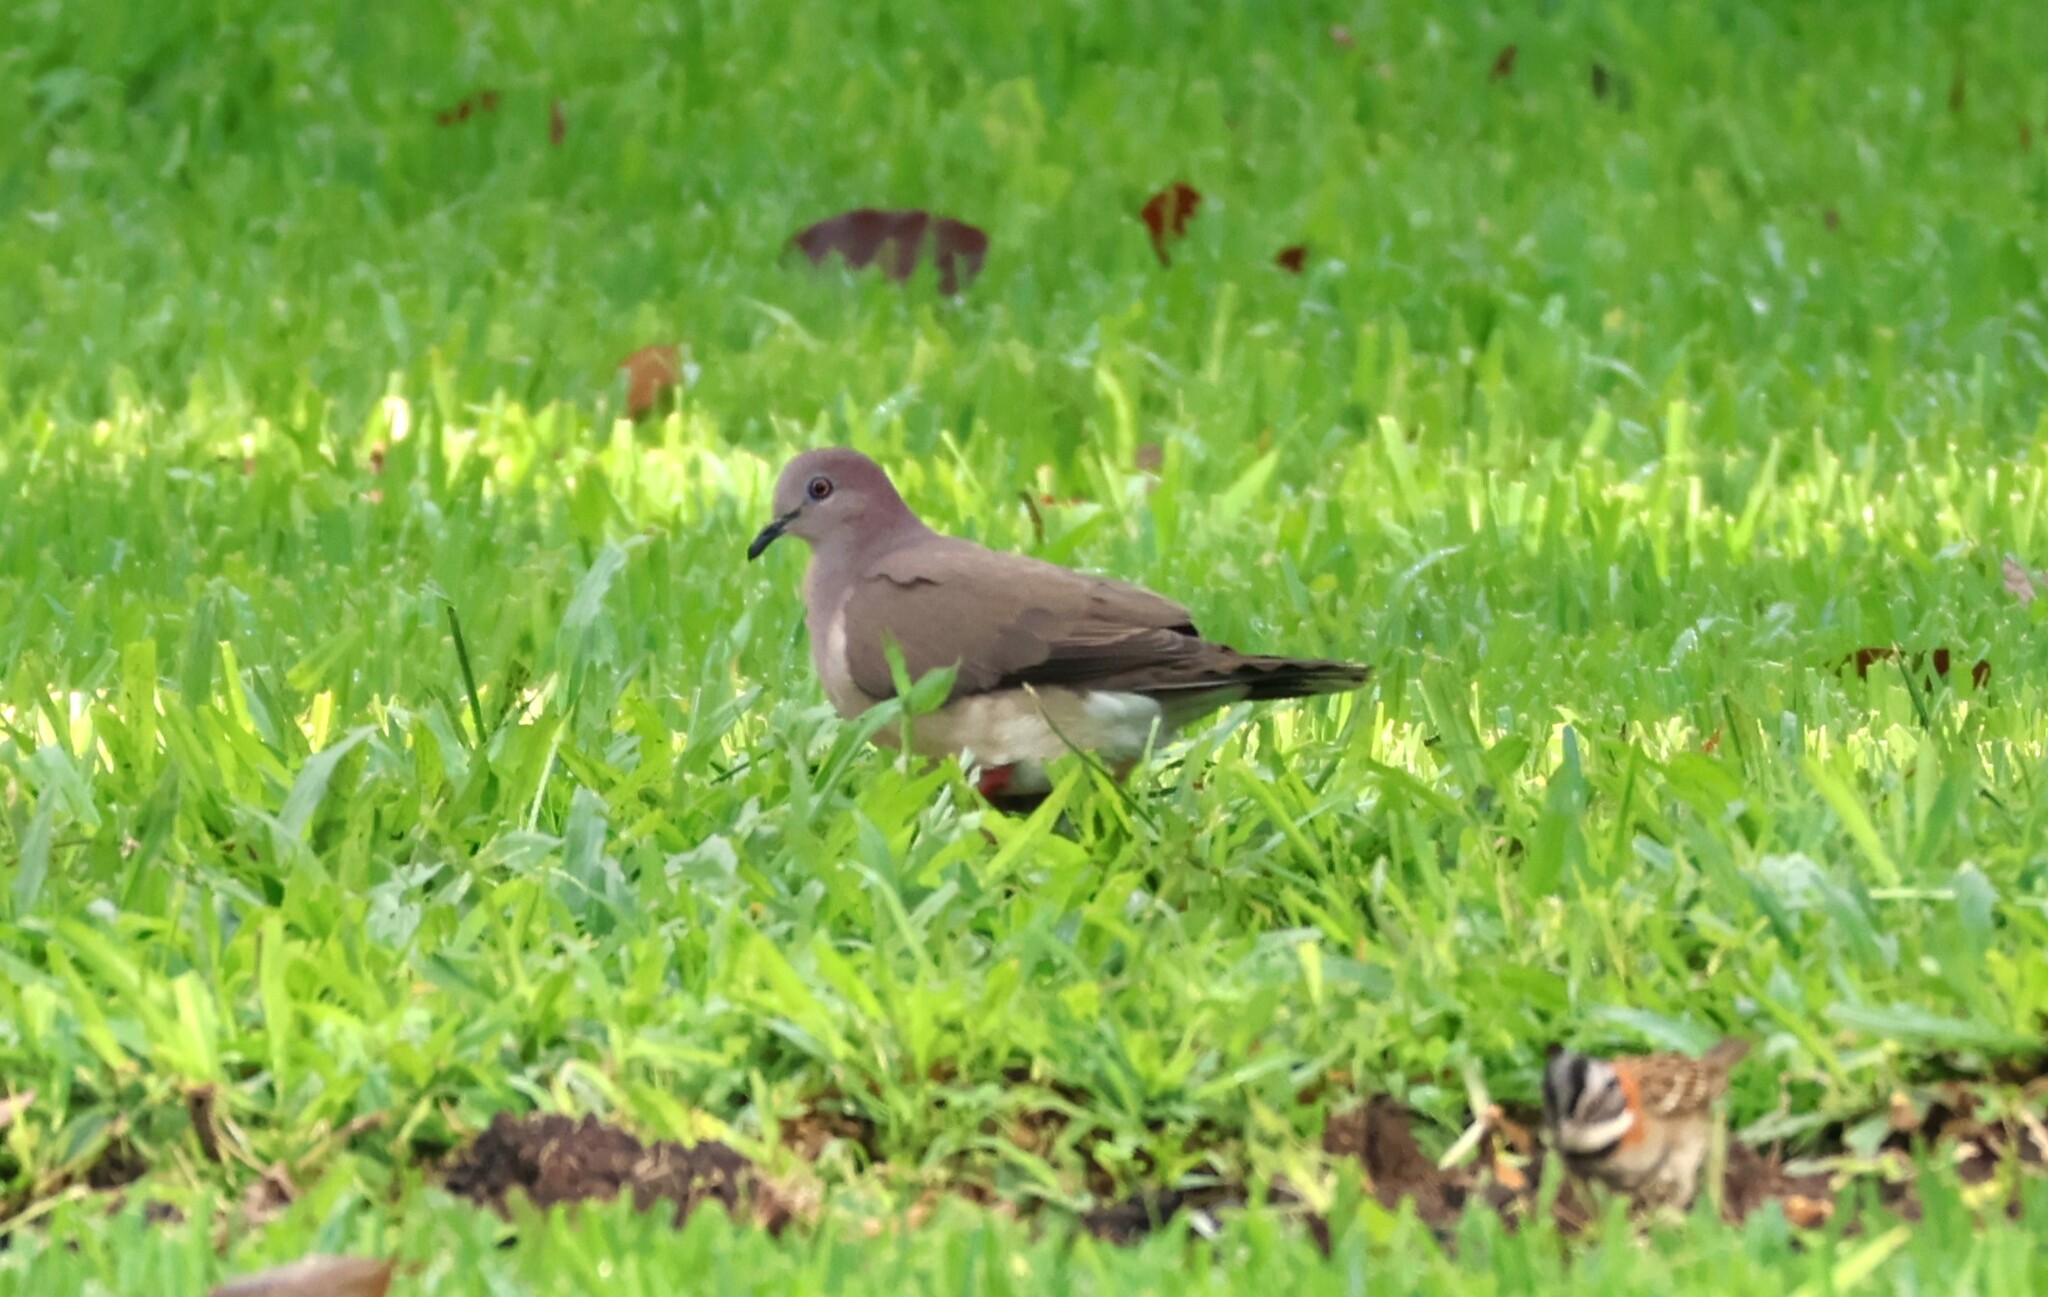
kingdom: Animalia
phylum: Chordata
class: Aves
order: Columbiformes
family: Columbidae
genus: Leptotila
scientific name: Leptotila verreauxi
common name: White-tipped dove
